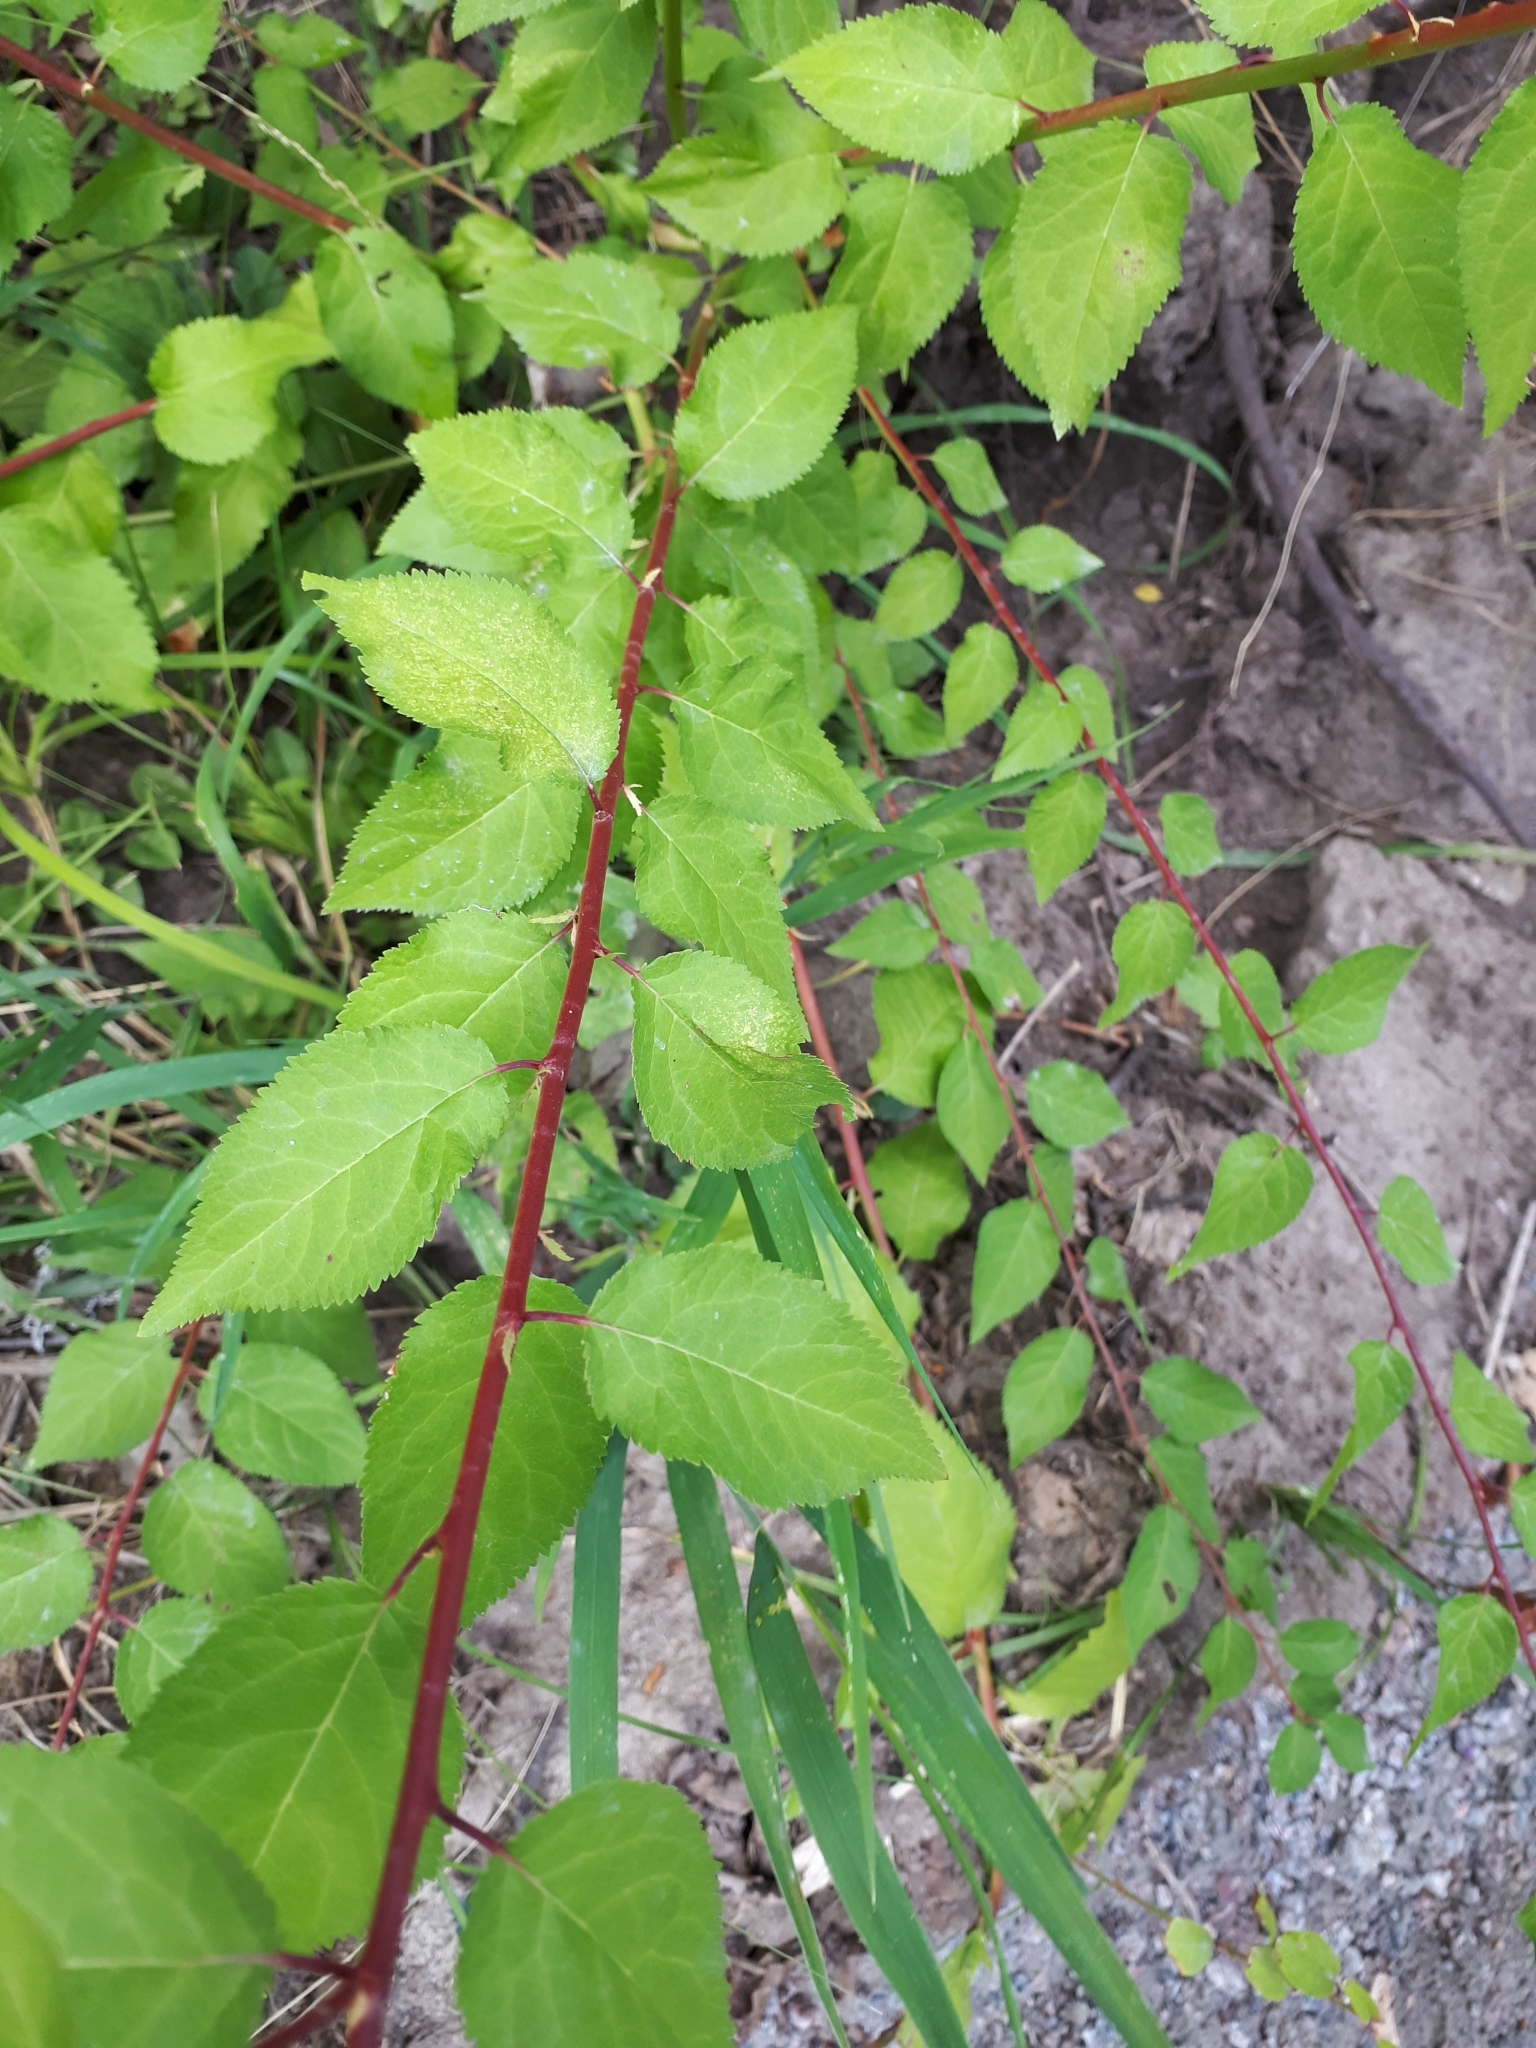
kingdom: Plantae
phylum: Tracheophyta
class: Magnoliopsida
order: Rosales
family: Rosaceae
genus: Prunus
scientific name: Prunus armeniaca
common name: Apricot
